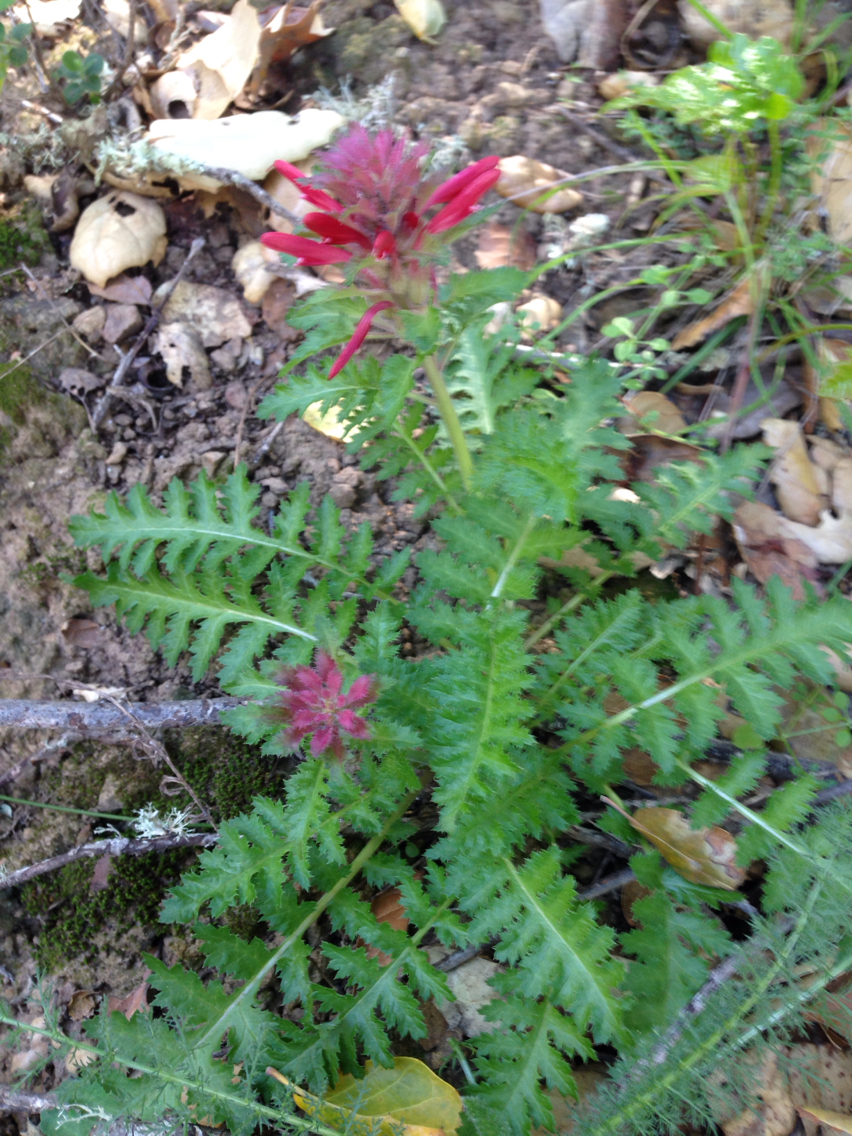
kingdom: Plantae
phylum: Tracheophyta
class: Magnoliopsida
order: Lamiales
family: Orobanchaceae
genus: Pedicularis
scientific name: Pedicularis densiflora
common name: Indian warrior
